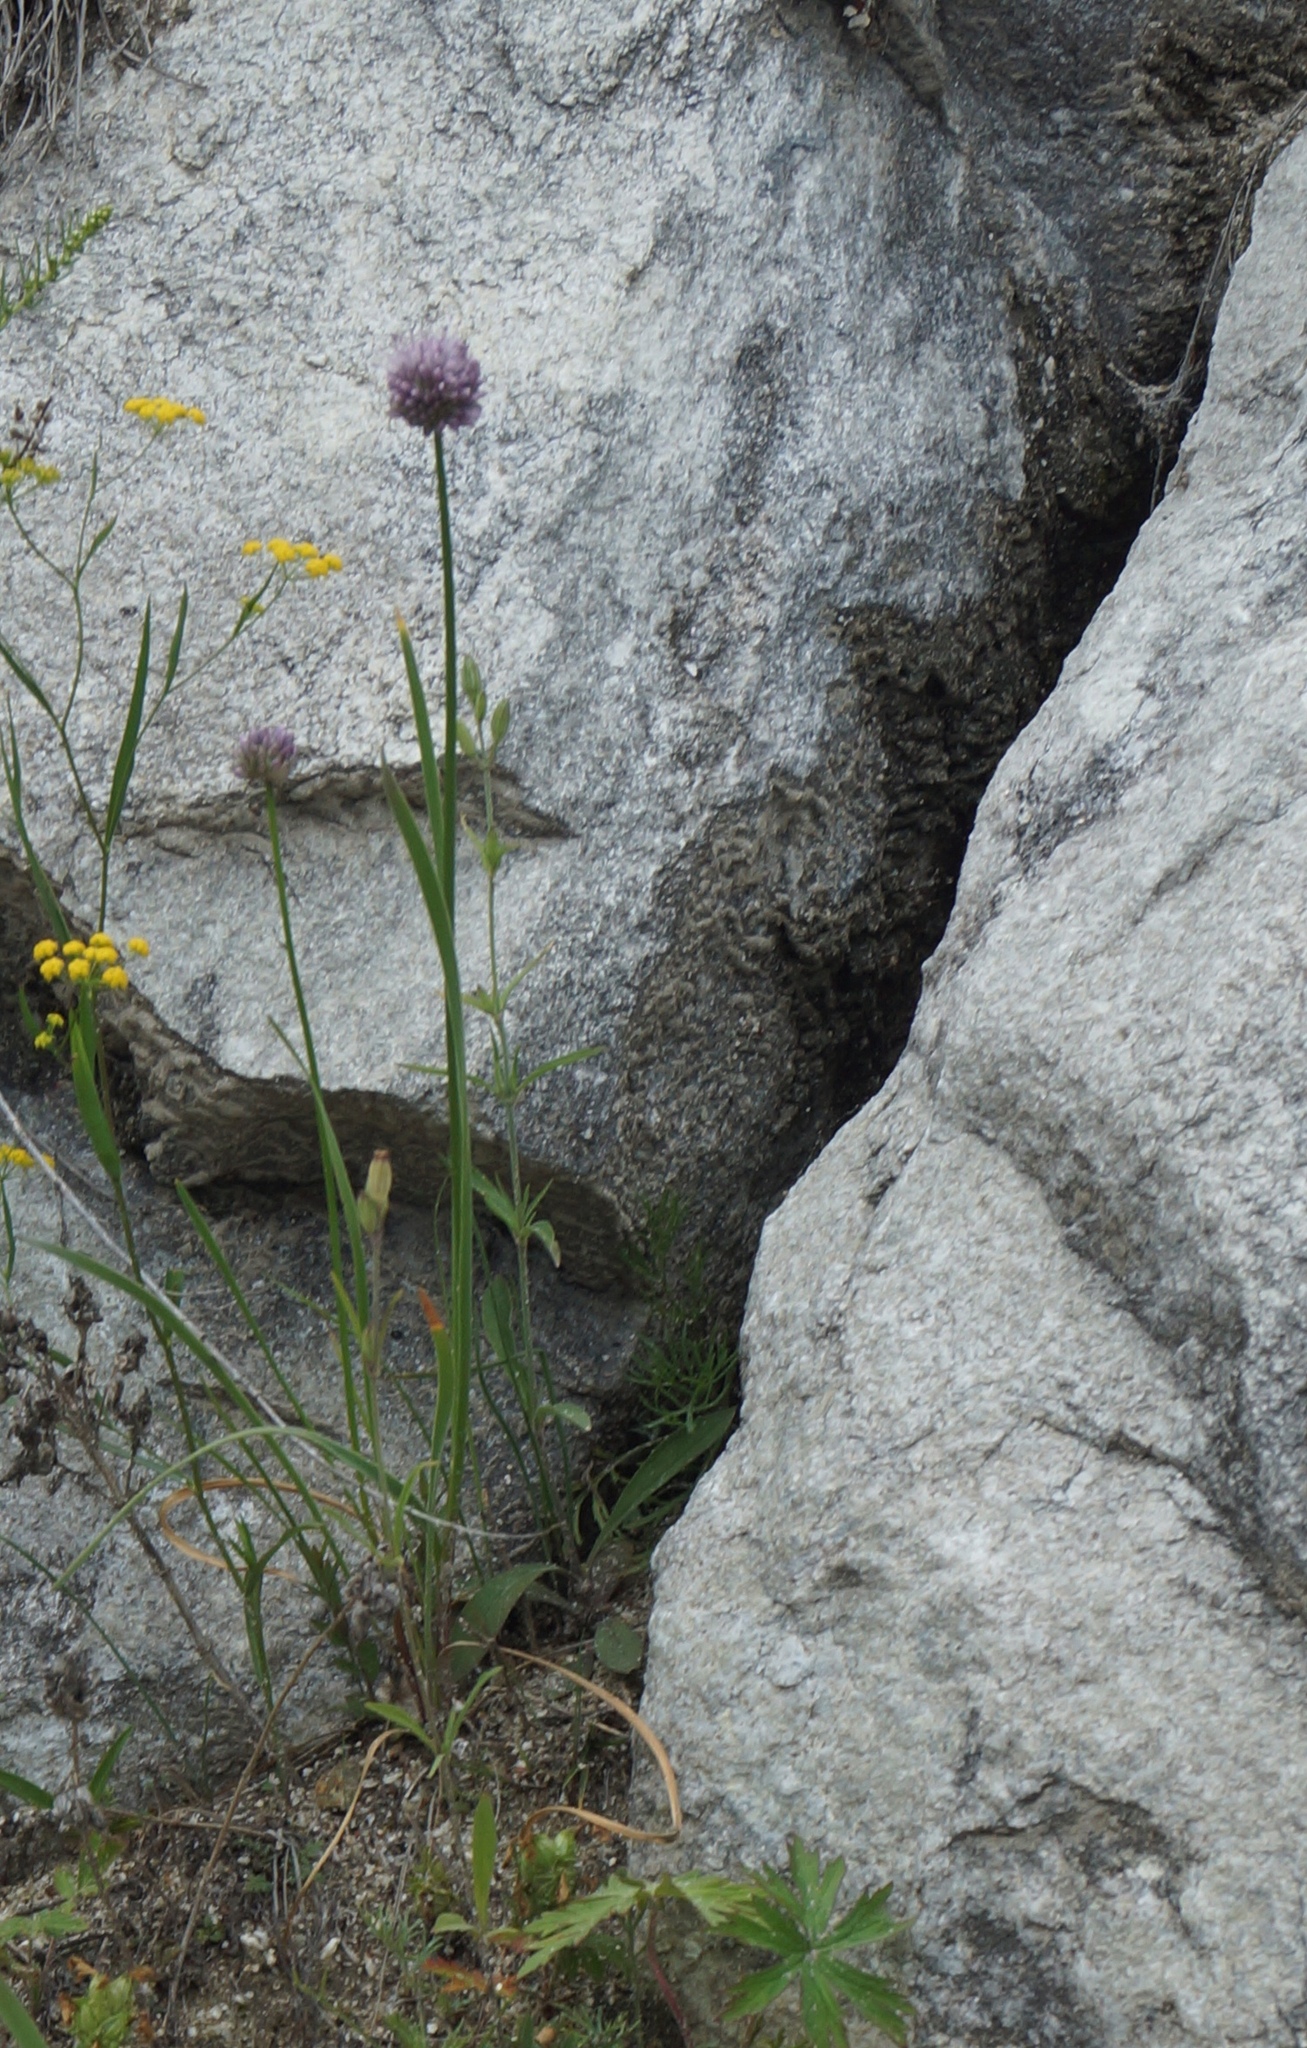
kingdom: Plantae
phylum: Tracheophyta
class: Liliopsida
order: Asparagales
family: Amaryllidaceae
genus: Allium
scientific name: Allium splendens
